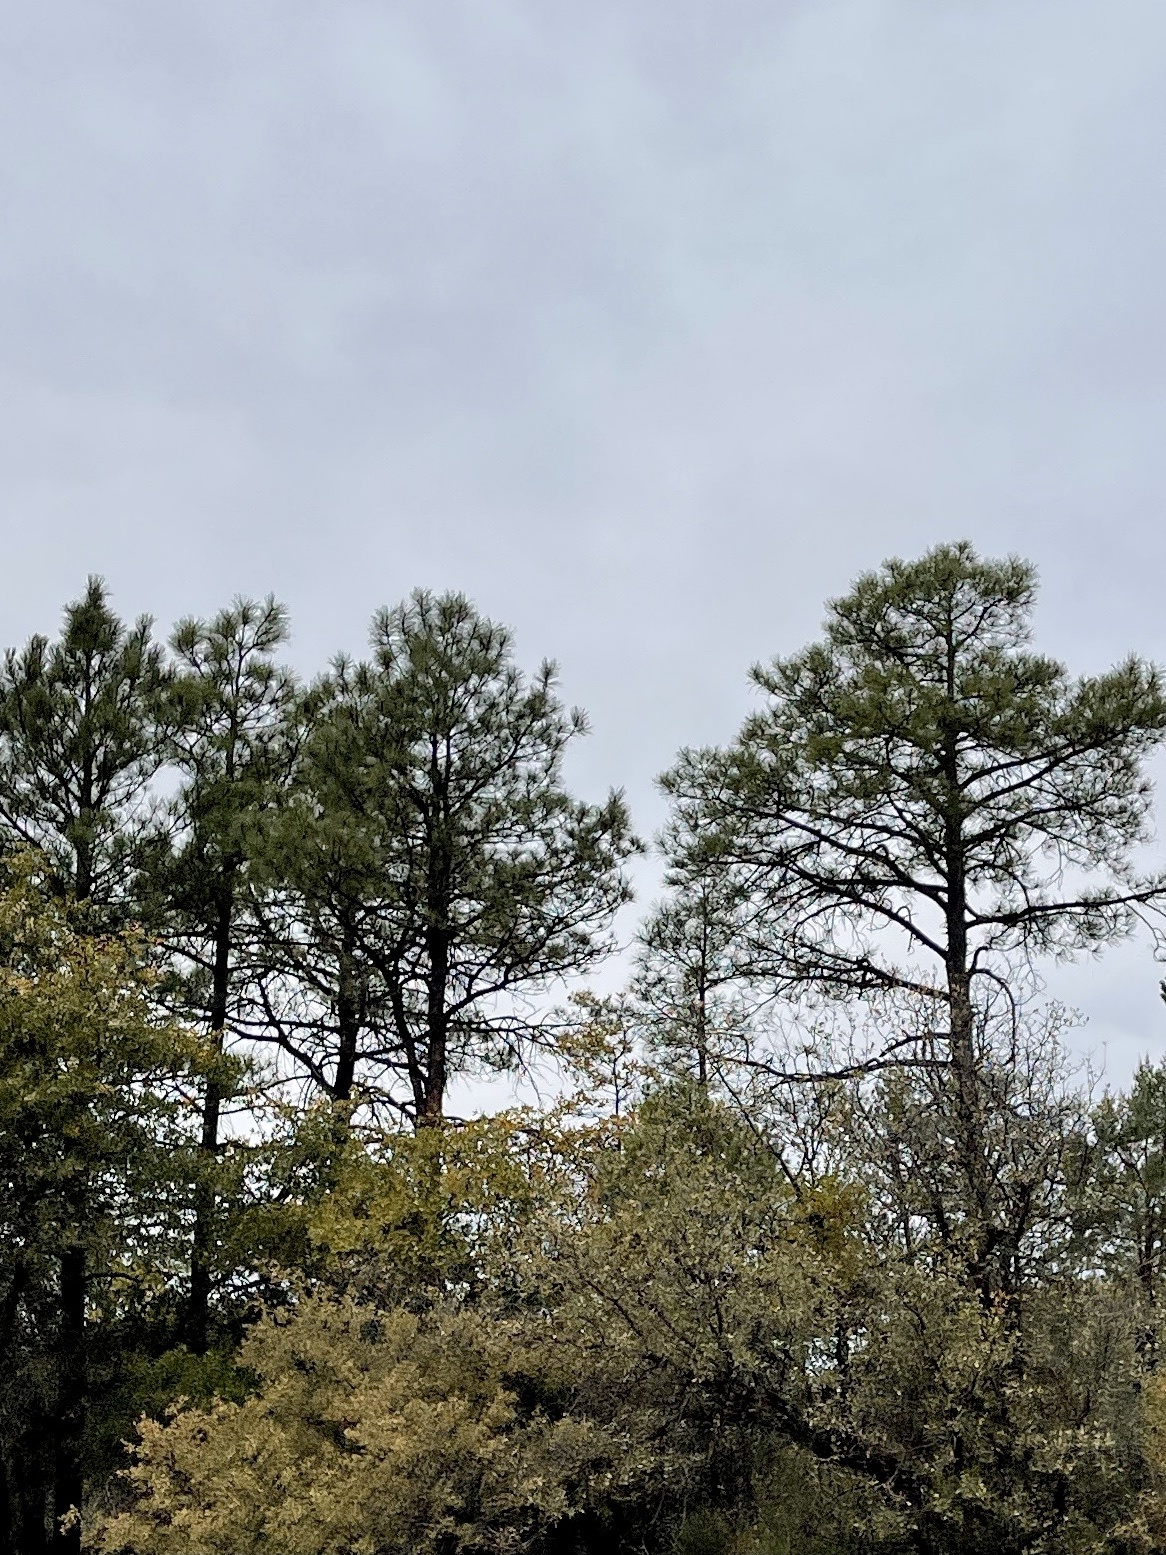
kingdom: Plantae
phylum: Tracheophyta
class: Pinopsida
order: Pinales
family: Pinaceae
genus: Pinus
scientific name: Pinus ponderosa
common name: Western yellow-pine
